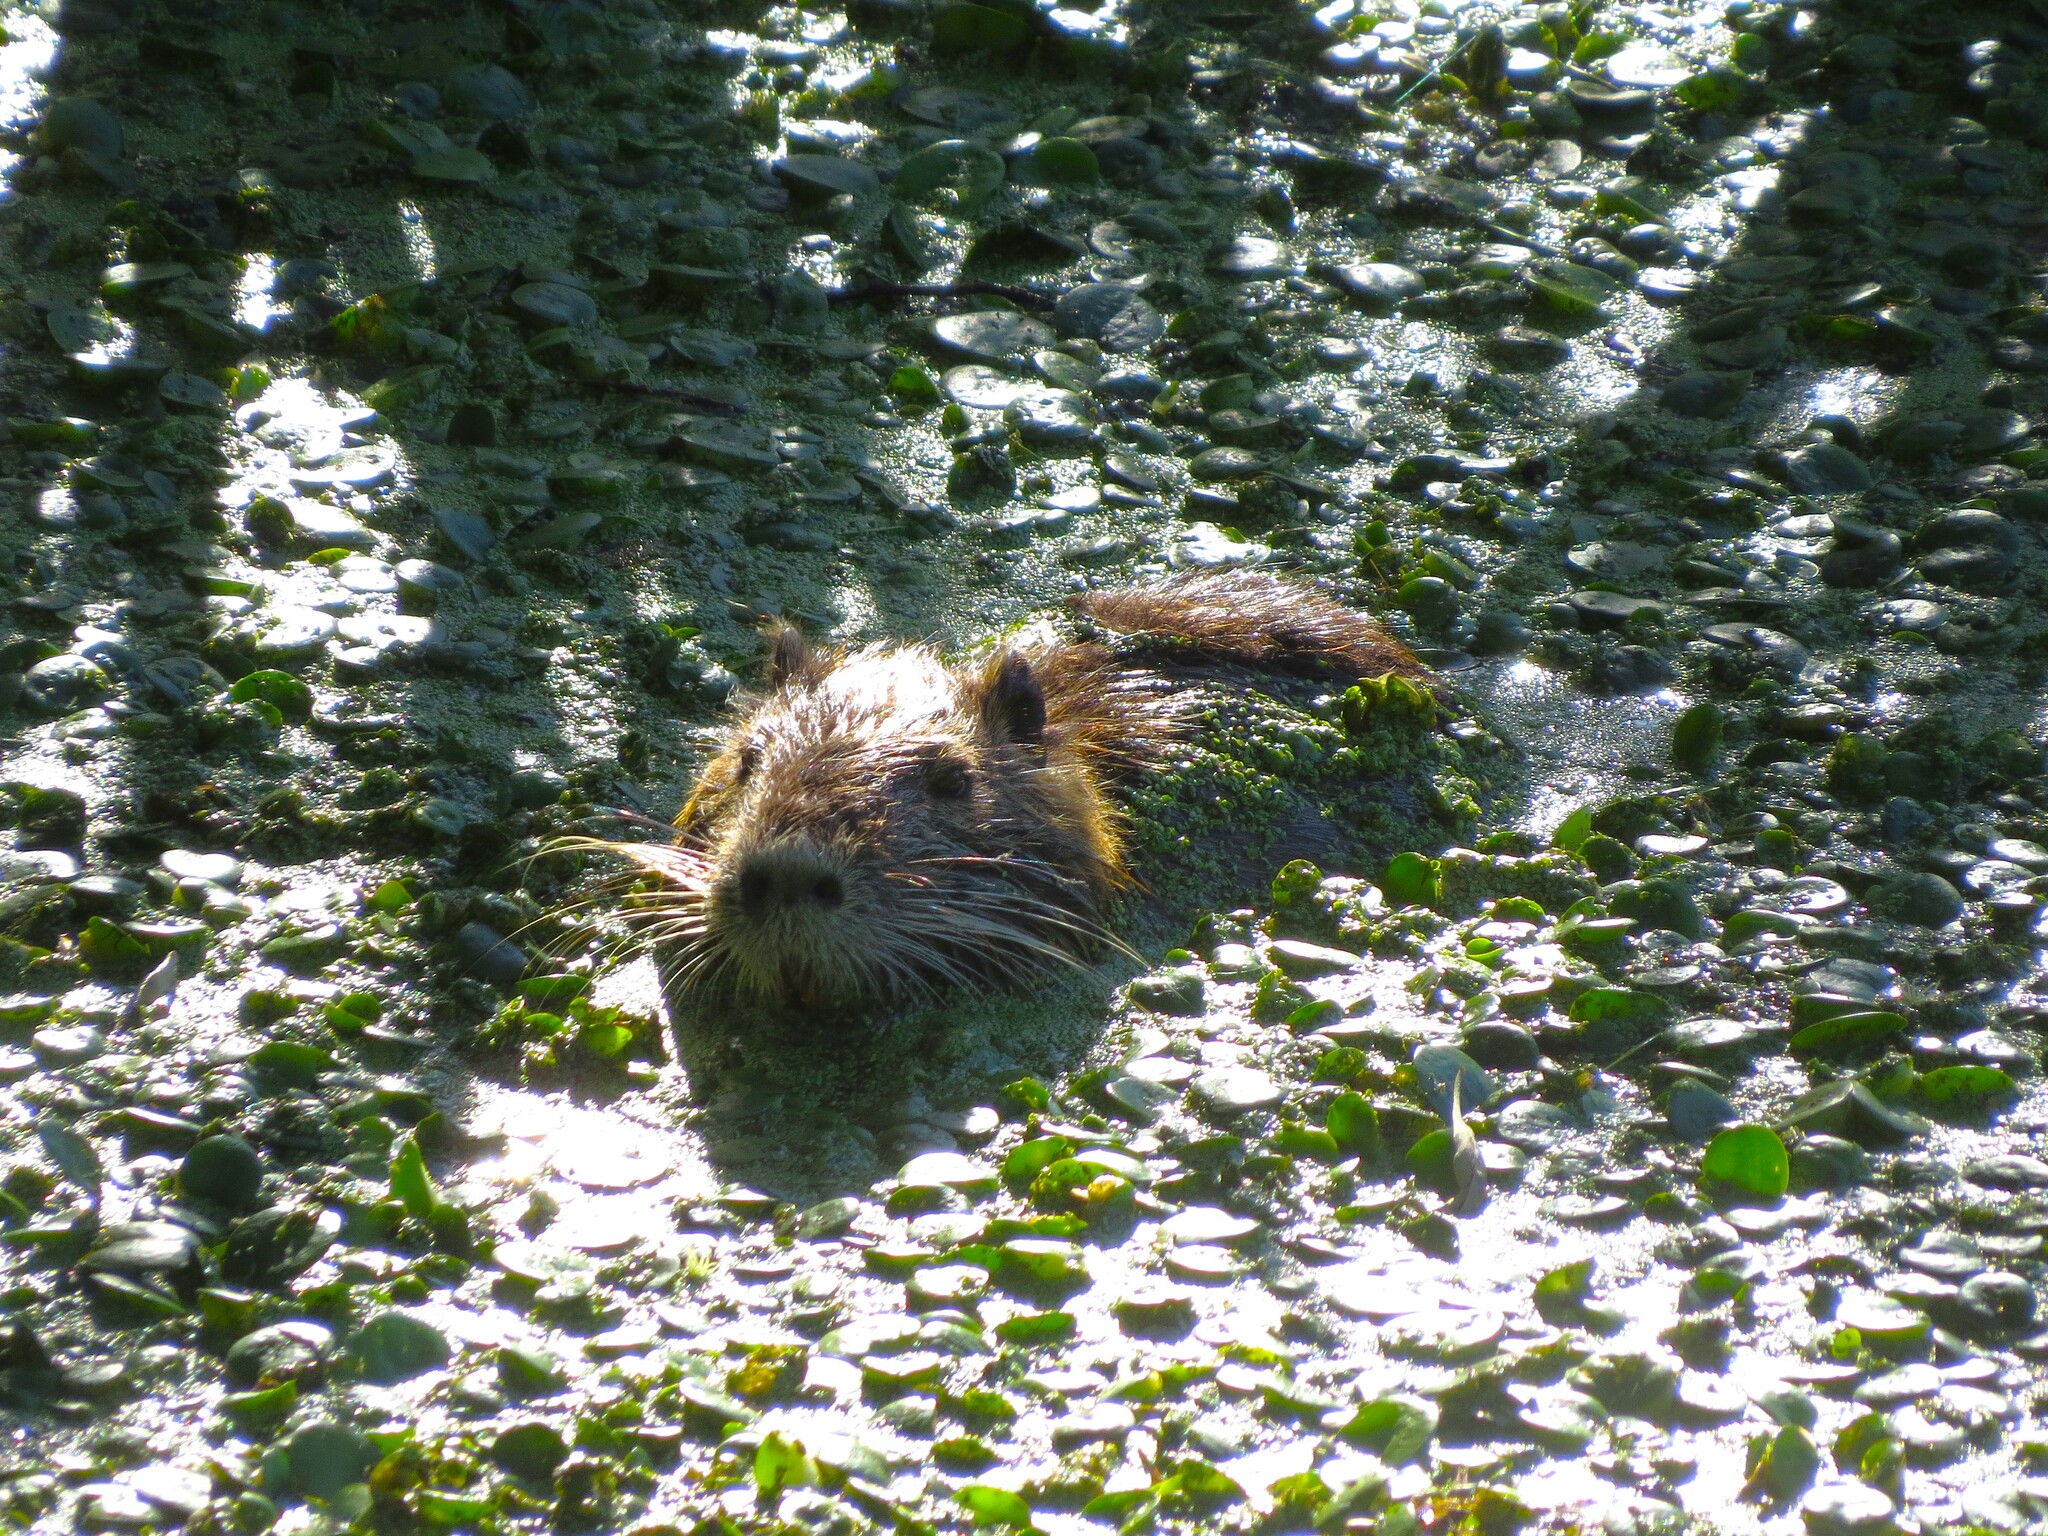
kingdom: Animalia
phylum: Chordata
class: Mammalia
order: Rodentia
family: Myocastoridae
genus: Myocastor
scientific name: Myocastor coypus
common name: Coypu
